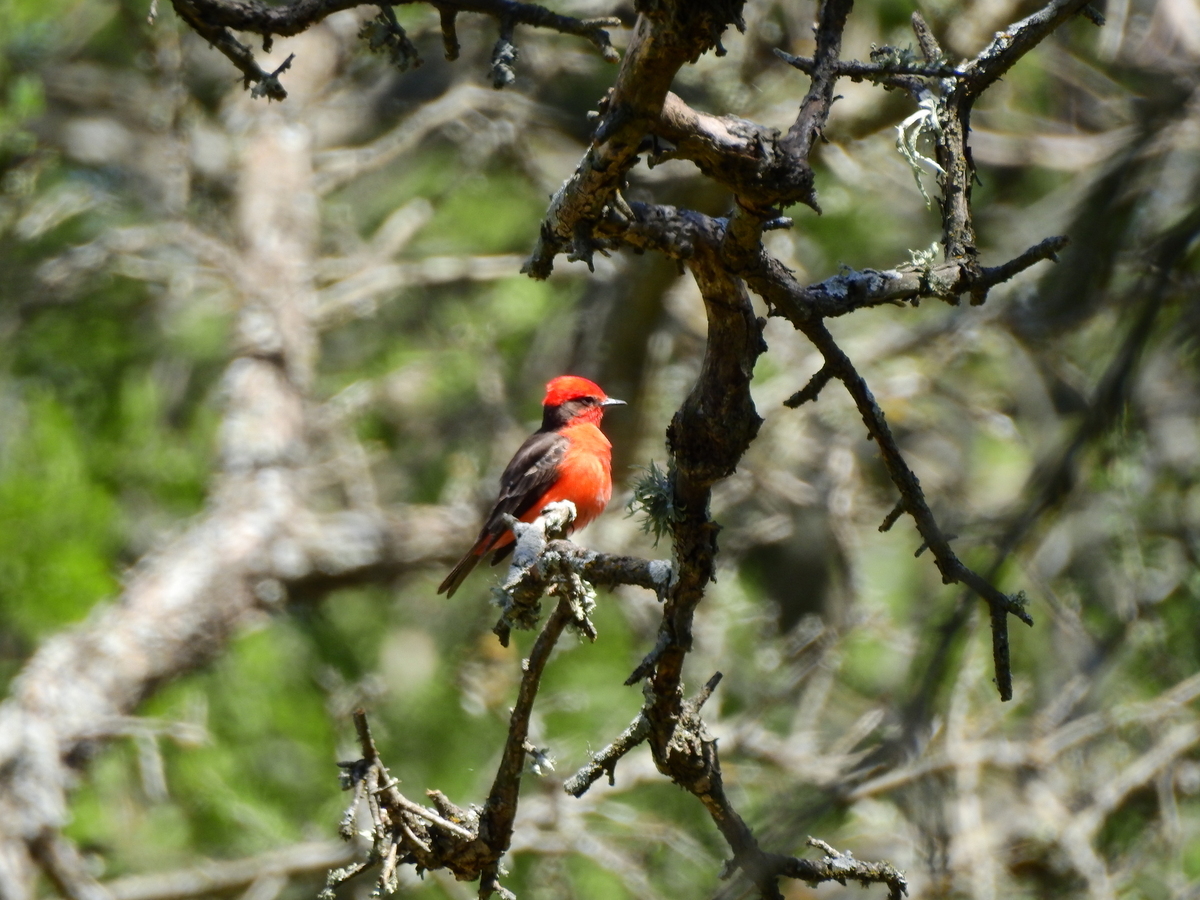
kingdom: Animalia
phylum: Chordata
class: Aves
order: Passeriformes
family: Tyrannidae
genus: Pyrocephalus
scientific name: Pyrocephalus rubinus
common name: Vermilion flycatcher
